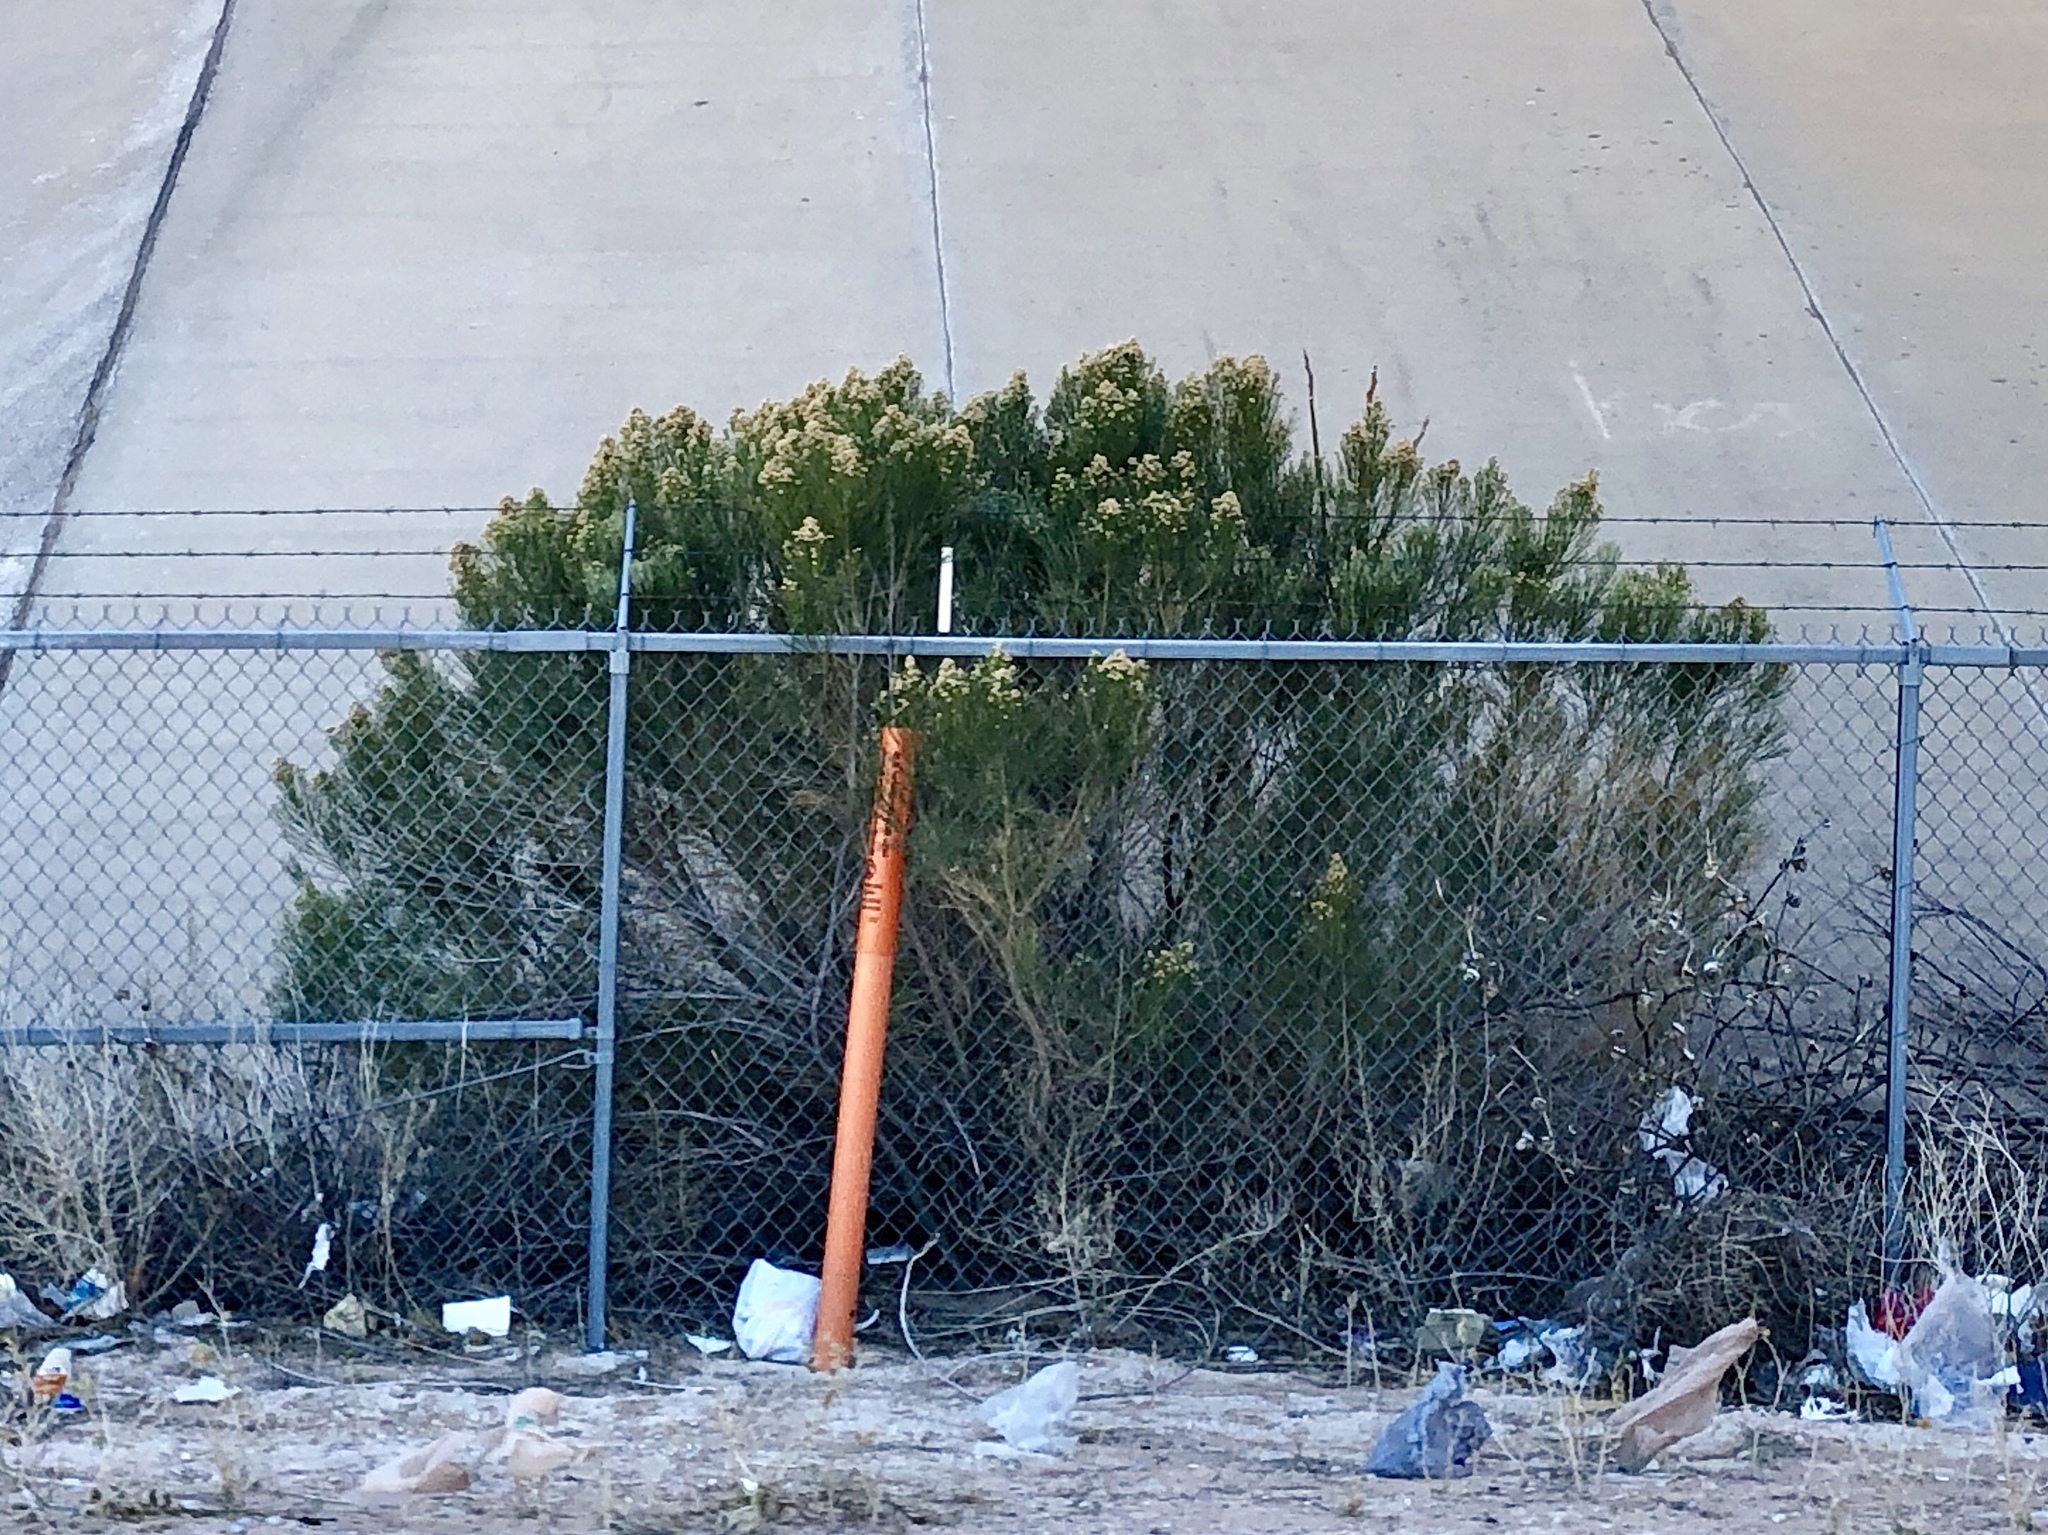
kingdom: Plantae
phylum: Tracheophyta
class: Magnoliopsida
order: Asterales
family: Asteraceae
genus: Baccharis
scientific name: Baccharis sarothroides
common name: Desert-broom
